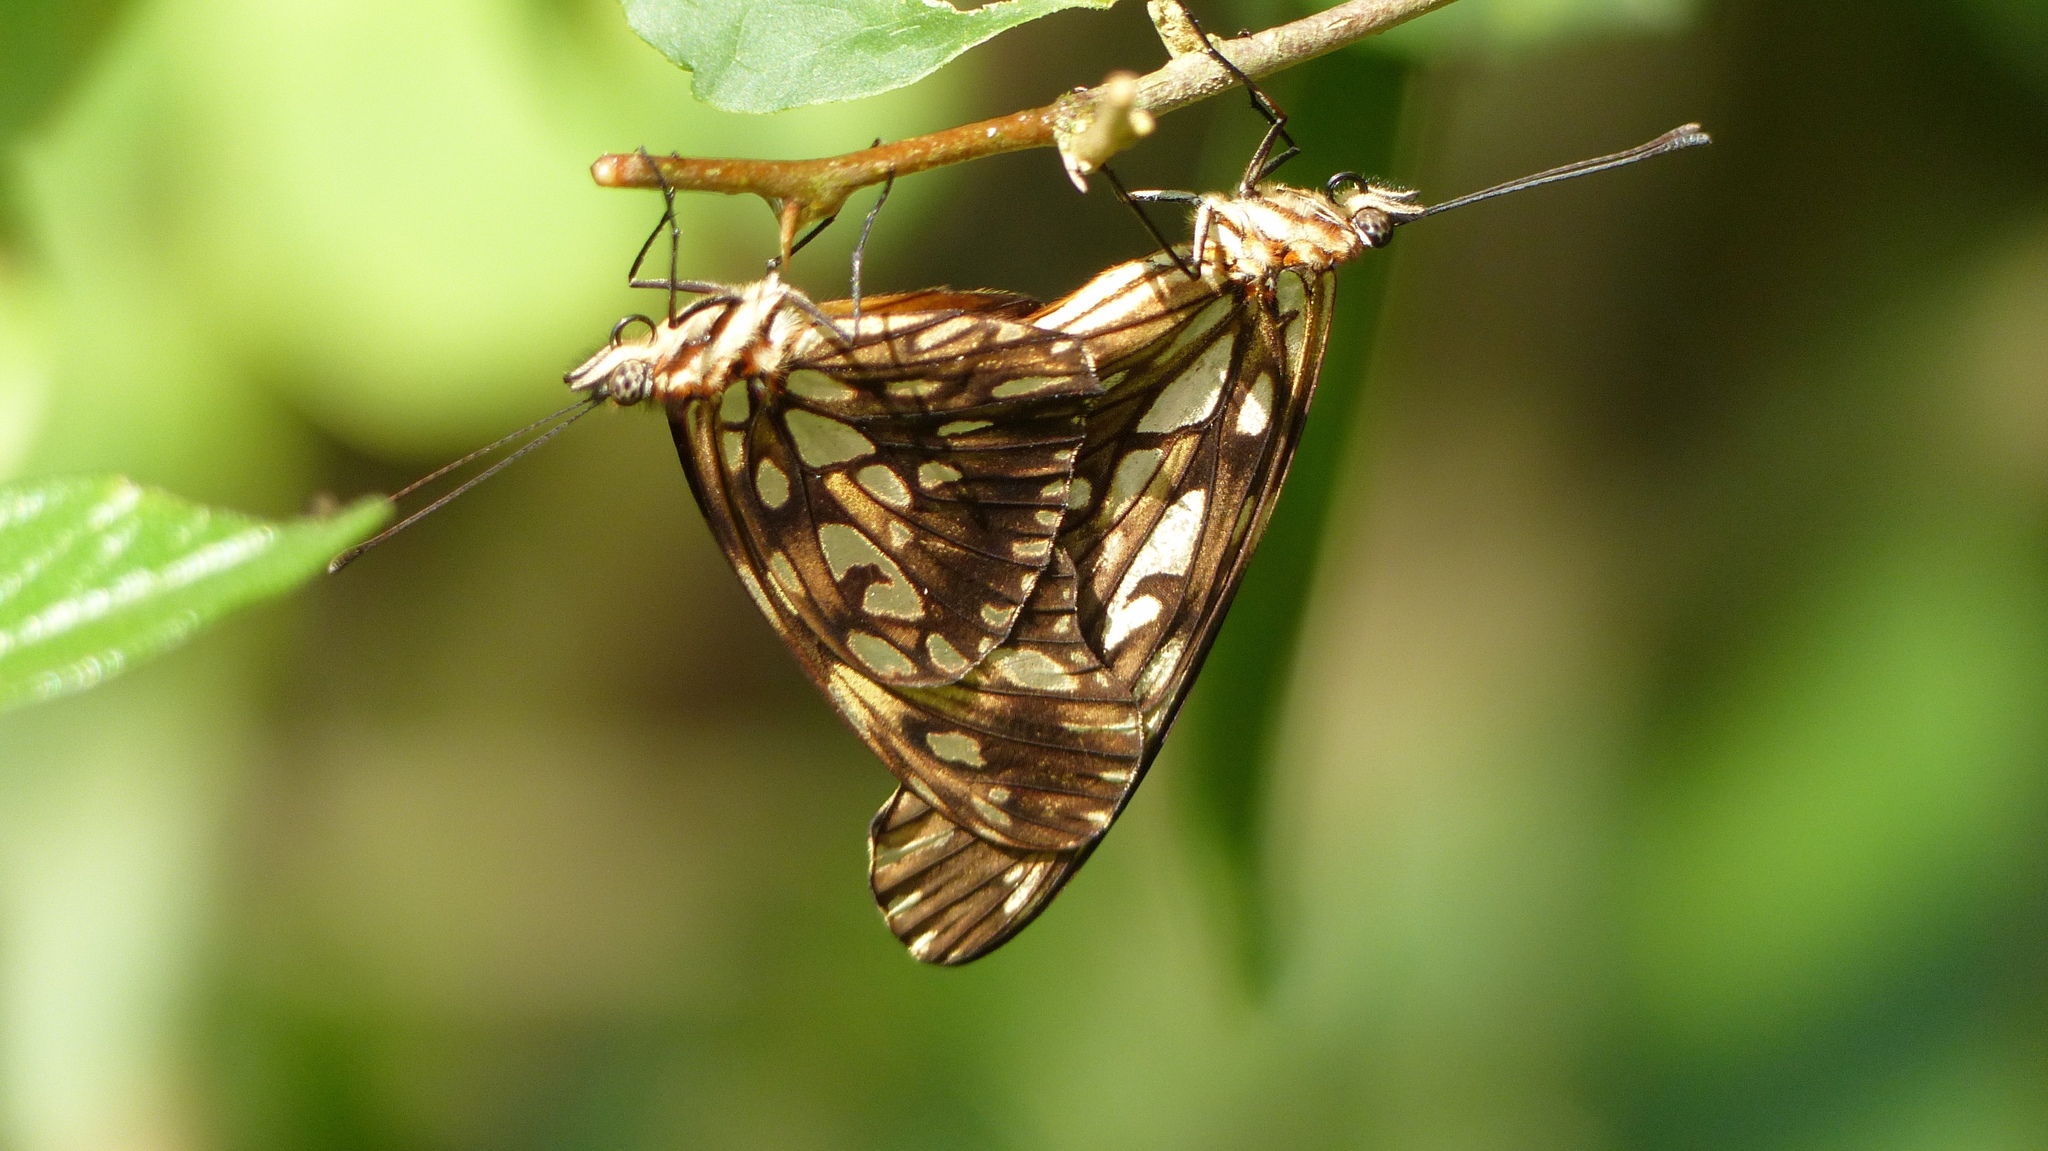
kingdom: Animalia
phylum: Arthropoda
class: Insecta
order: Lepidoptera
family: Nymphalidae
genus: Dione
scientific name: Dione juno
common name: Juno silverspot
